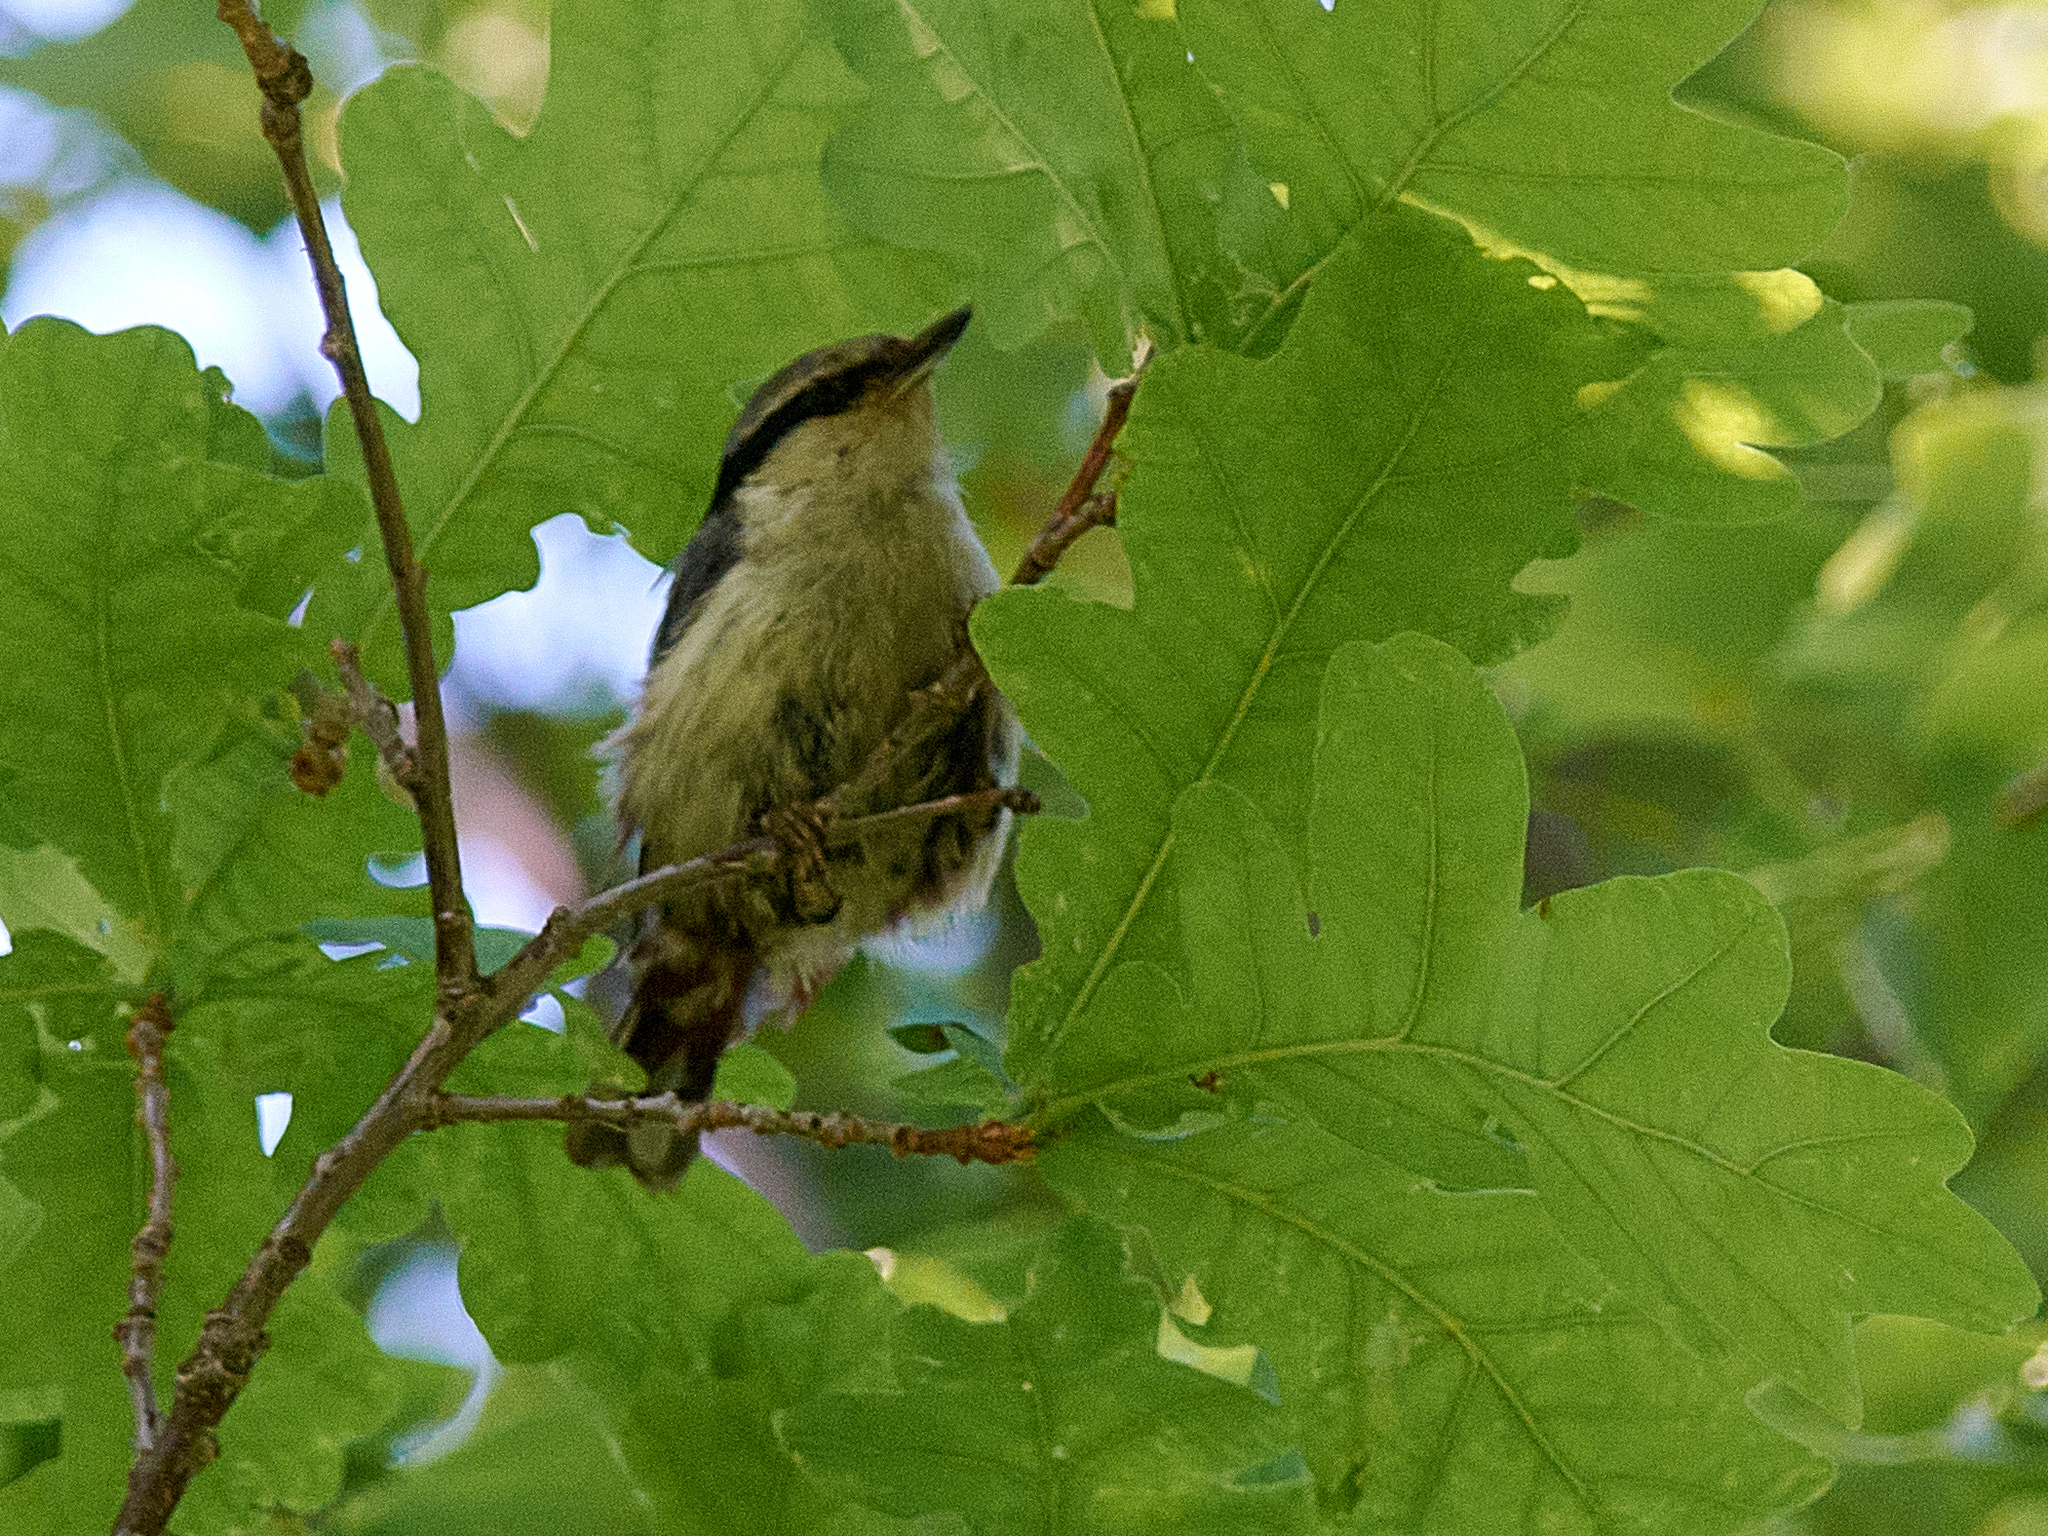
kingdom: Animalia
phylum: Chordata
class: Aves
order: Passeriformes
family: Sittidae
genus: Sitta
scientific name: Sitta europaea
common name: Eurasian nuthatch
